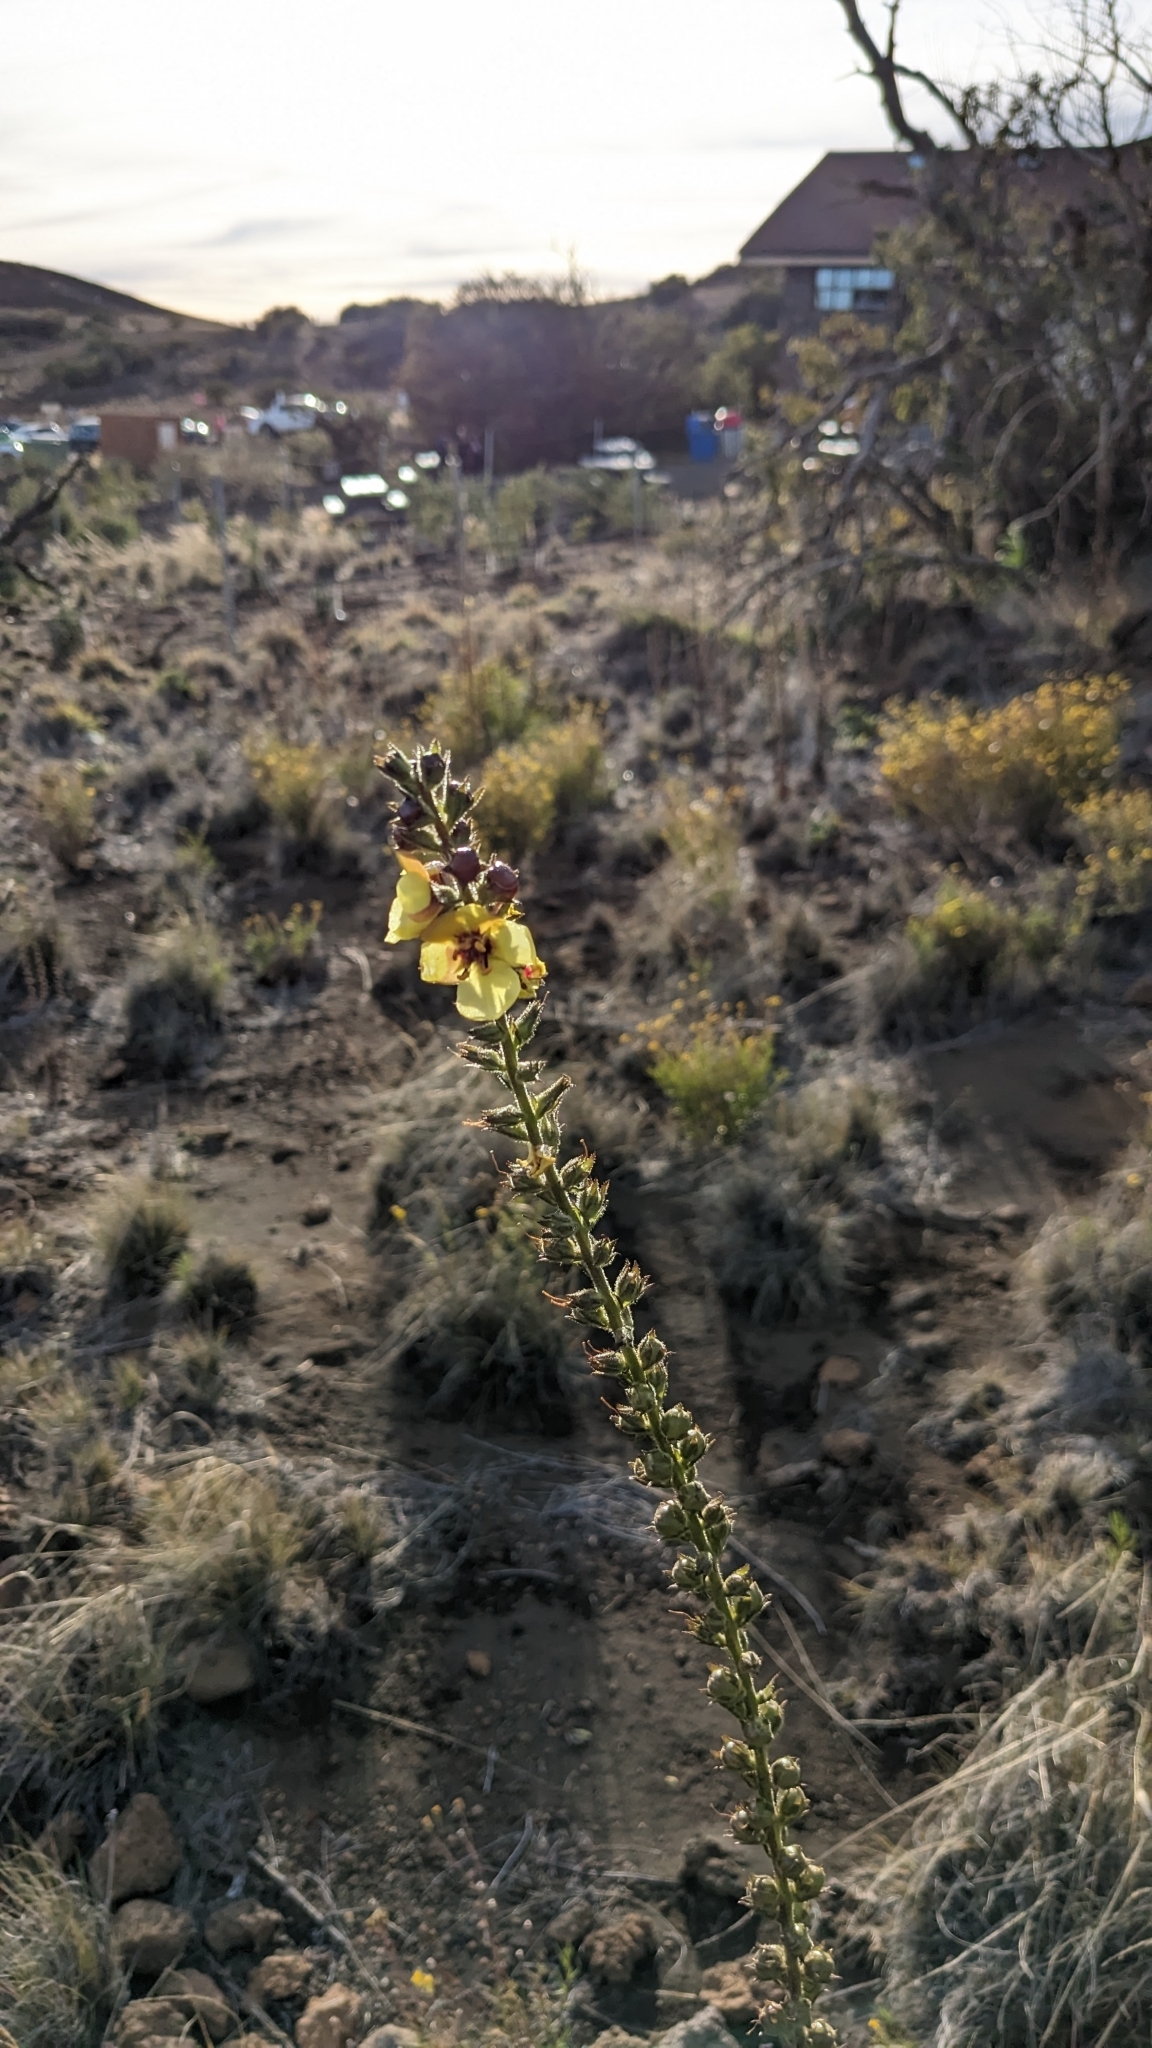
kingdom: Plantae
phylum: Tracheophyta
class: Magnoliopsida
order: Lamiales
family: Scrophulariaceae
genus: Verbascum
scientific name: Verbascum virgatum
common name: Twiggy mullein
